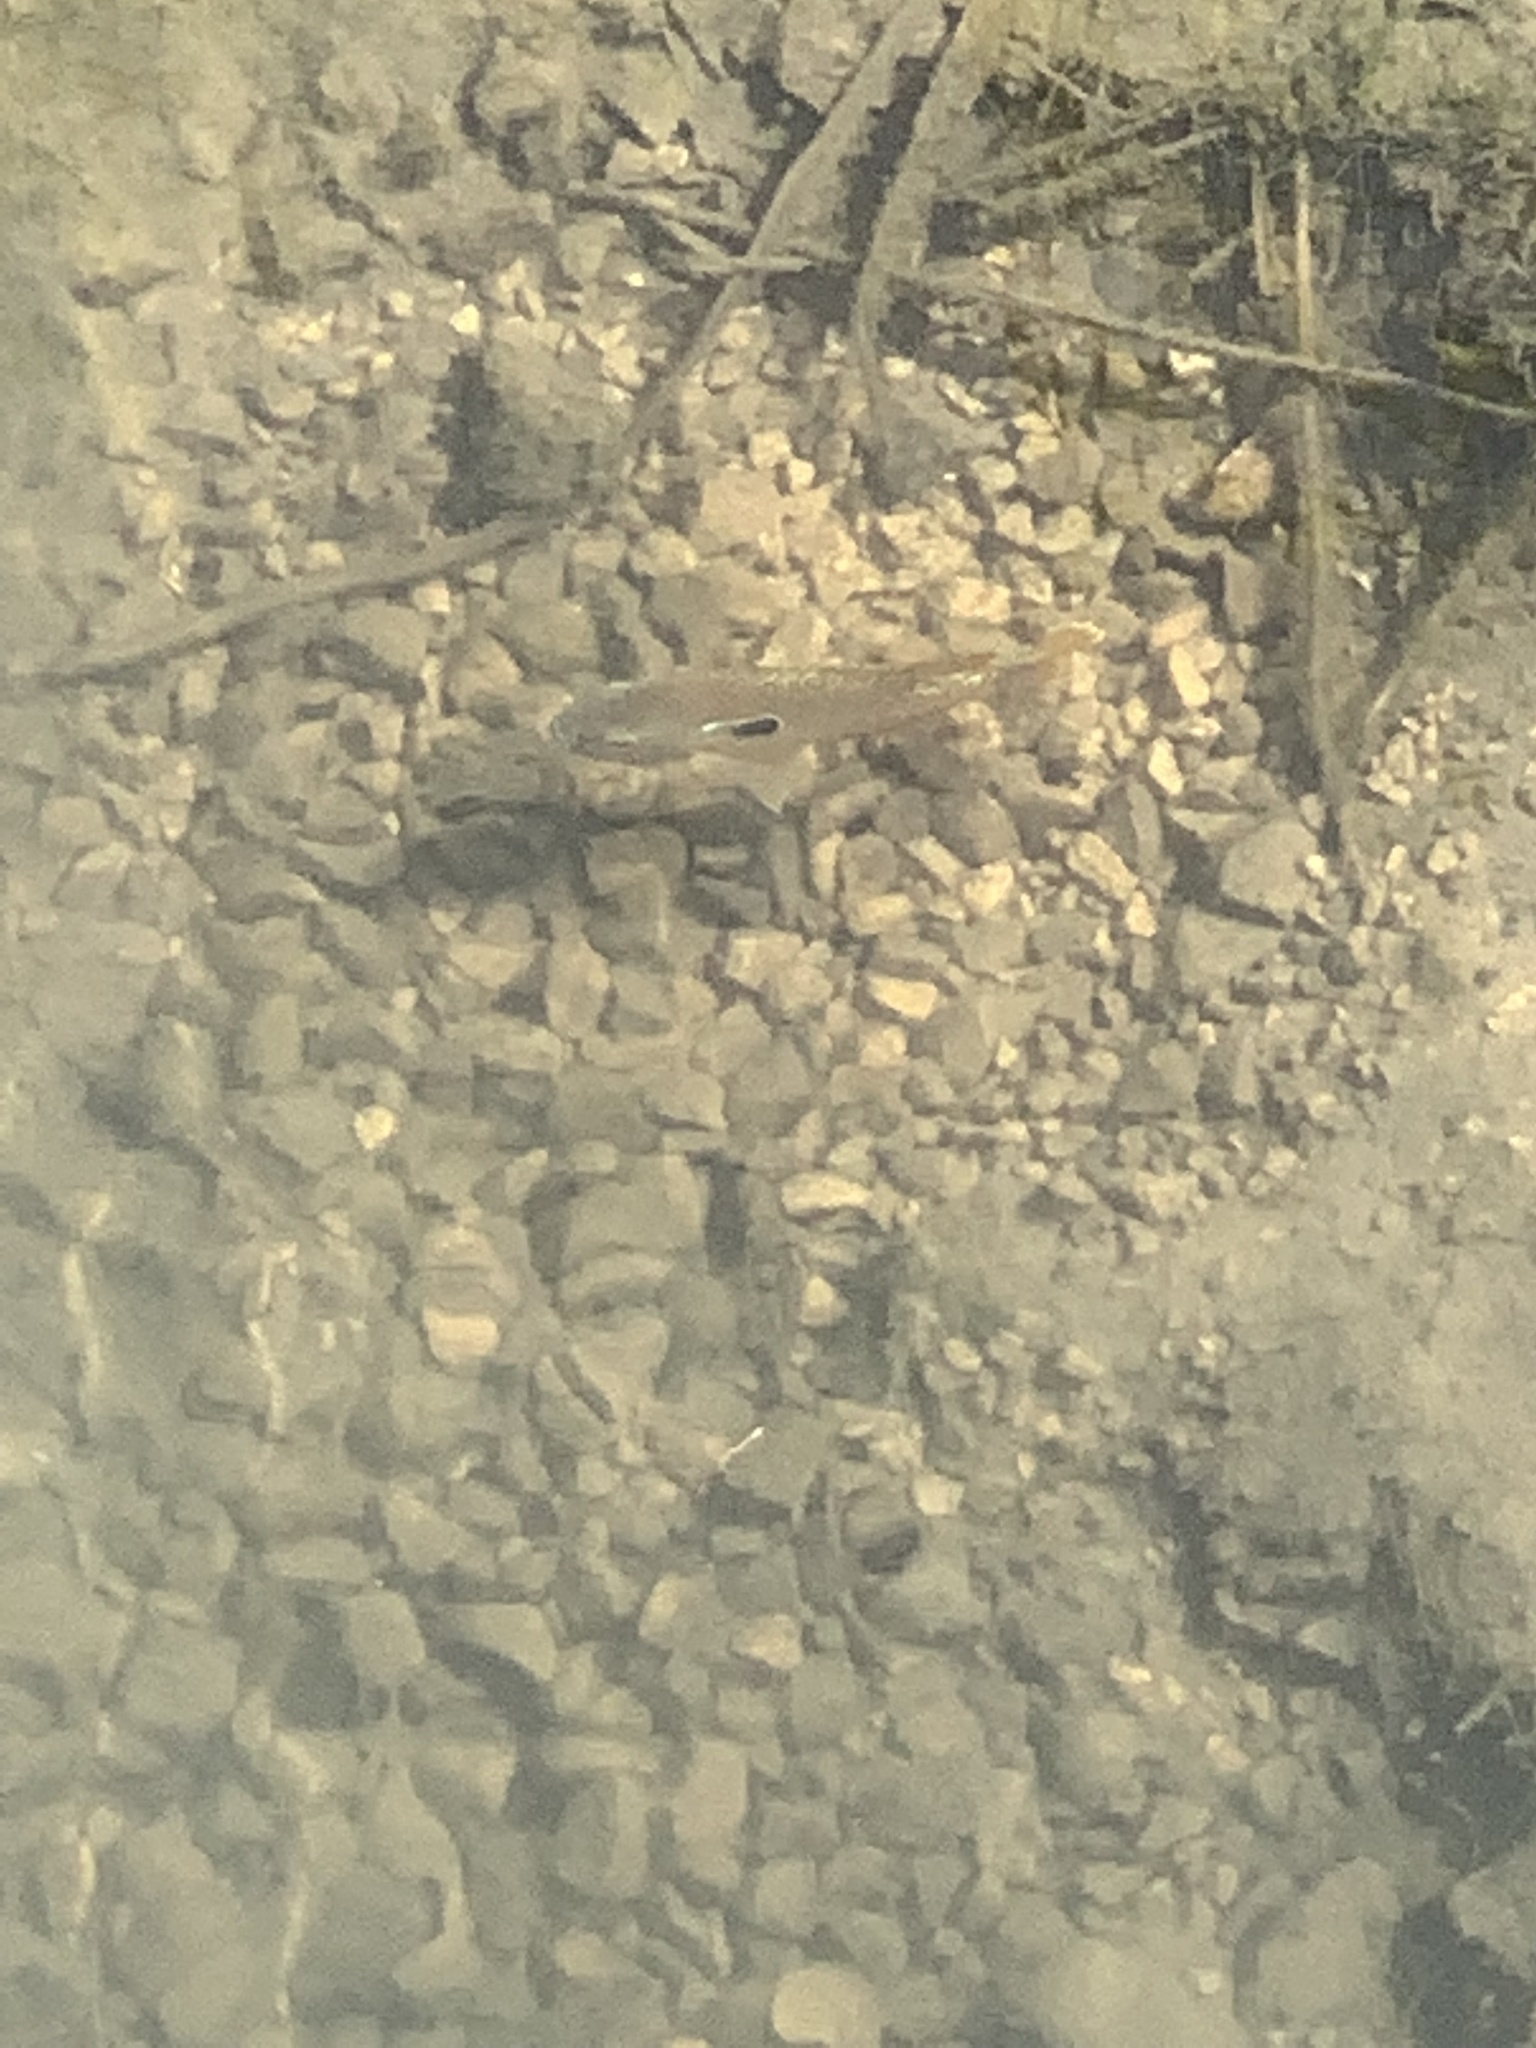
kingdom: Animalia
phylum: Chordata
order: Perciformes
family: Centrarchidae
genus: Lepomis
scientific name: Lepomis megalotis
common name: Longear sunfish
